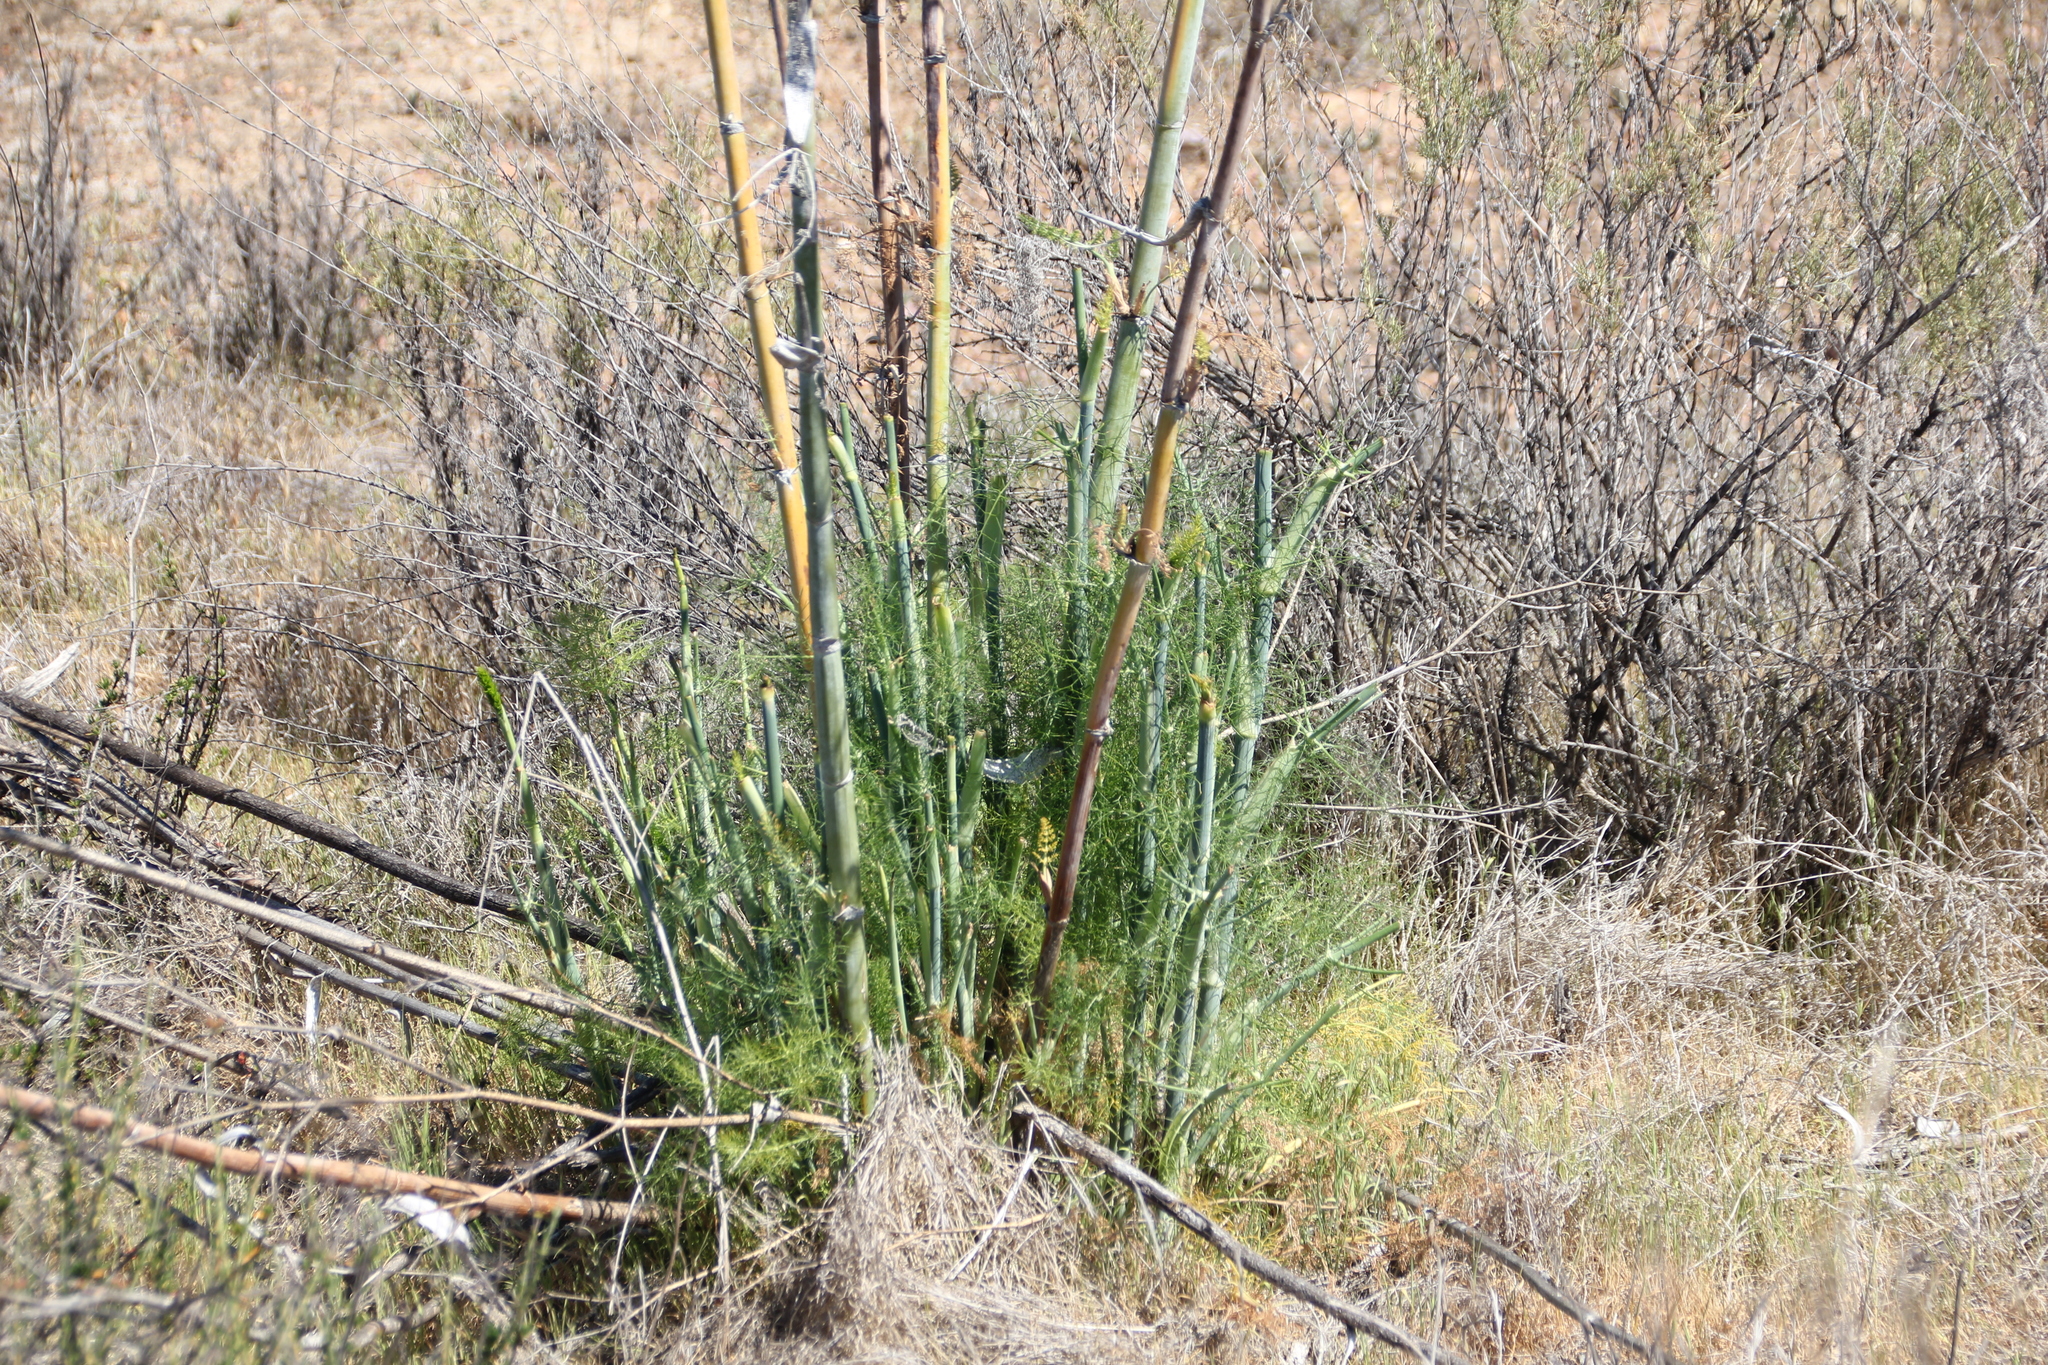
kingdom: Plantae
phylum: Tracheophyta
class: Magnoliopsida
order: Apiales
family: Apiaceae
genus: Foeniculum
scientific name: Foeniculum vulgare
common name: Fennel
